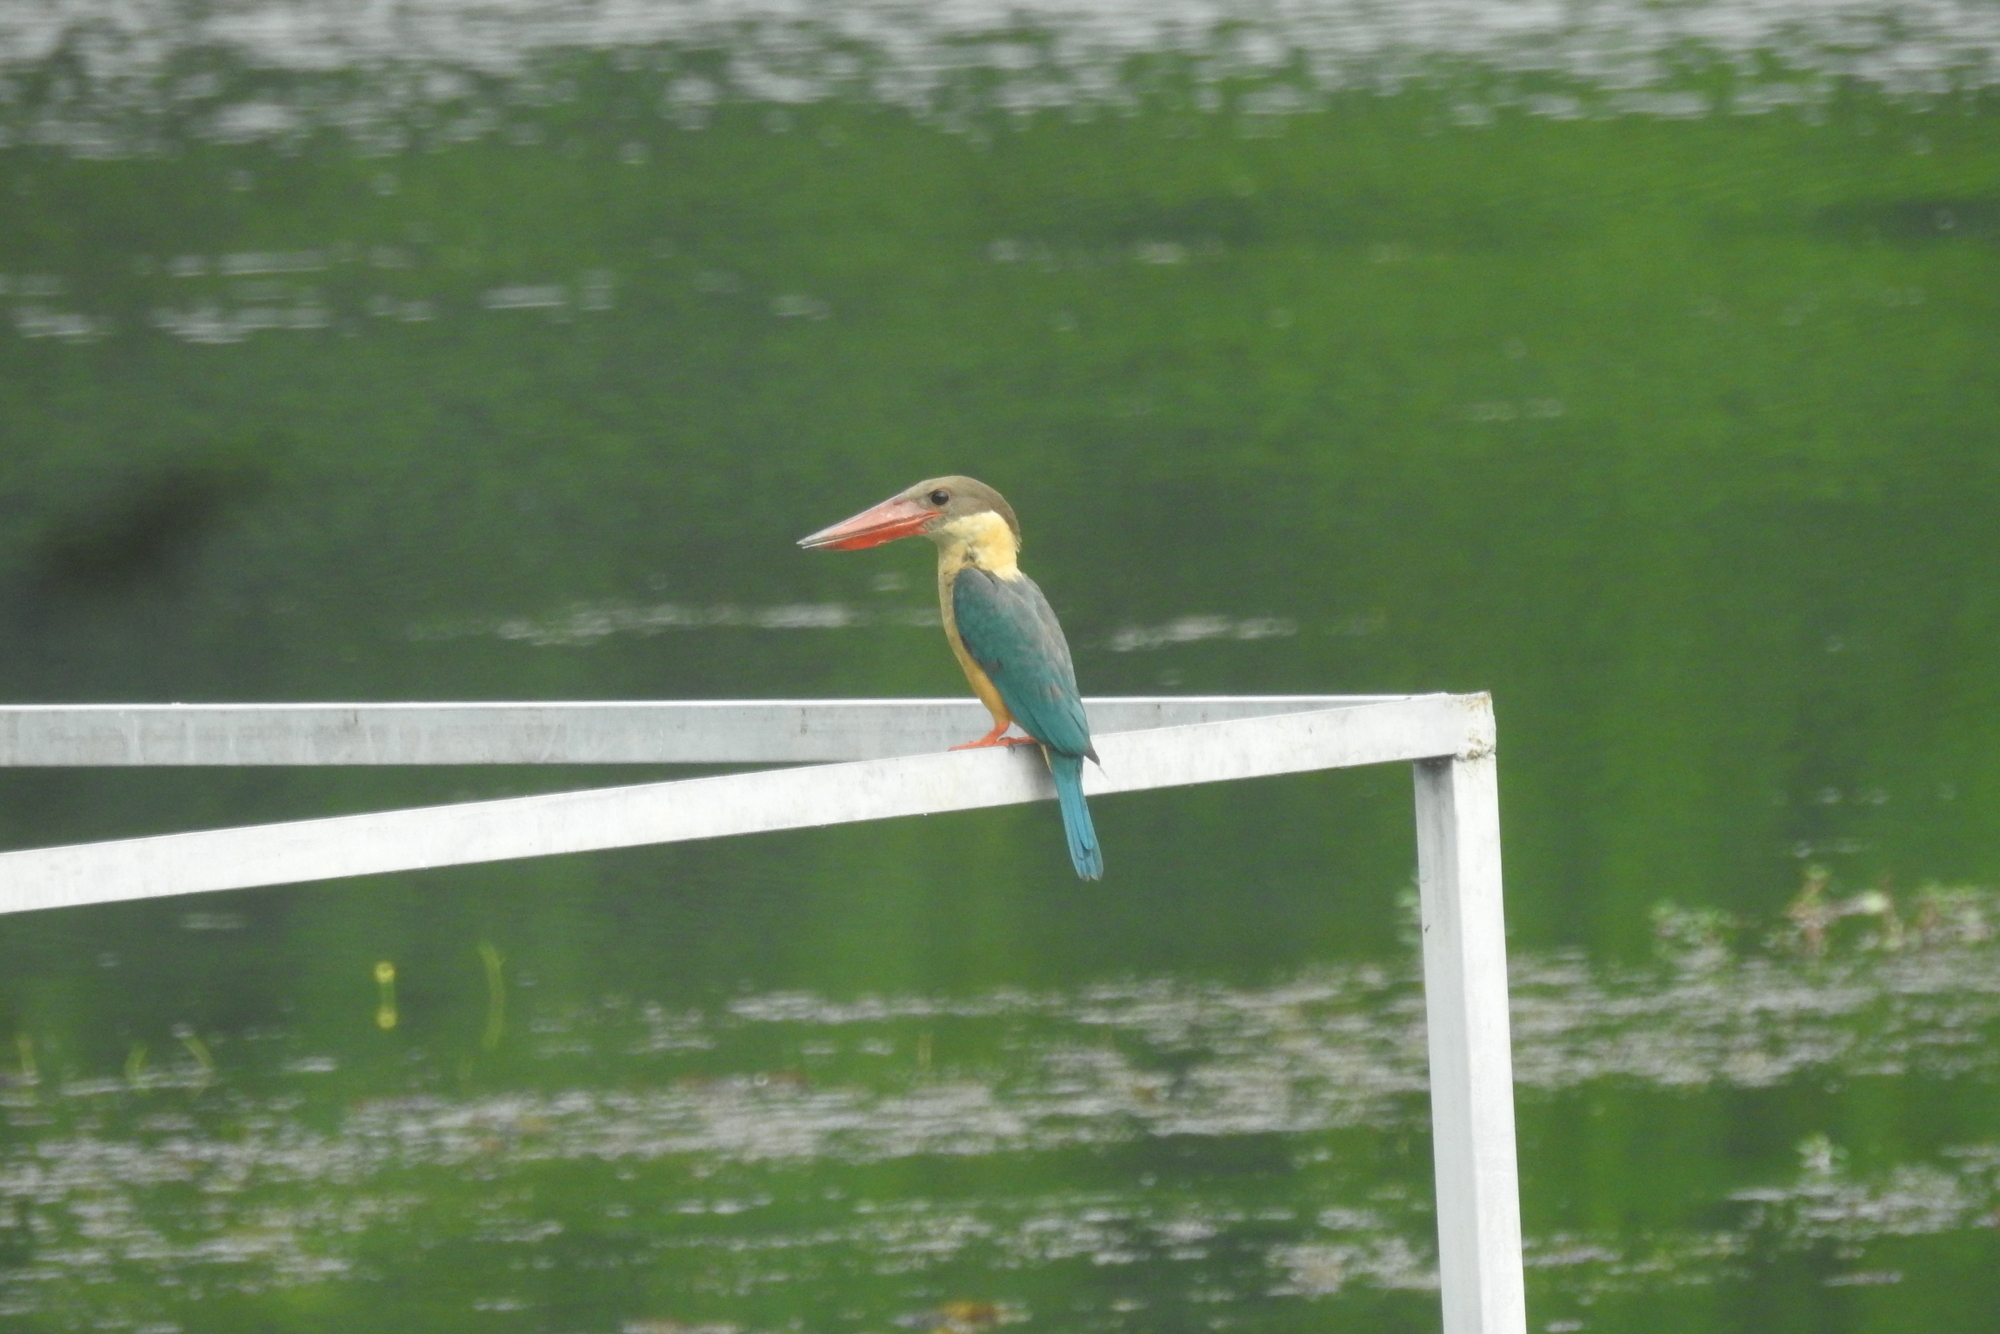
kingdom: Animalia
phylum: Chordata
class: Aves
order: Coraciiformes
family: Alcedinidae
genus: Pelargopsis
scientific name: Pelargopsis capensis
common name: Stork-billed kingfisher
